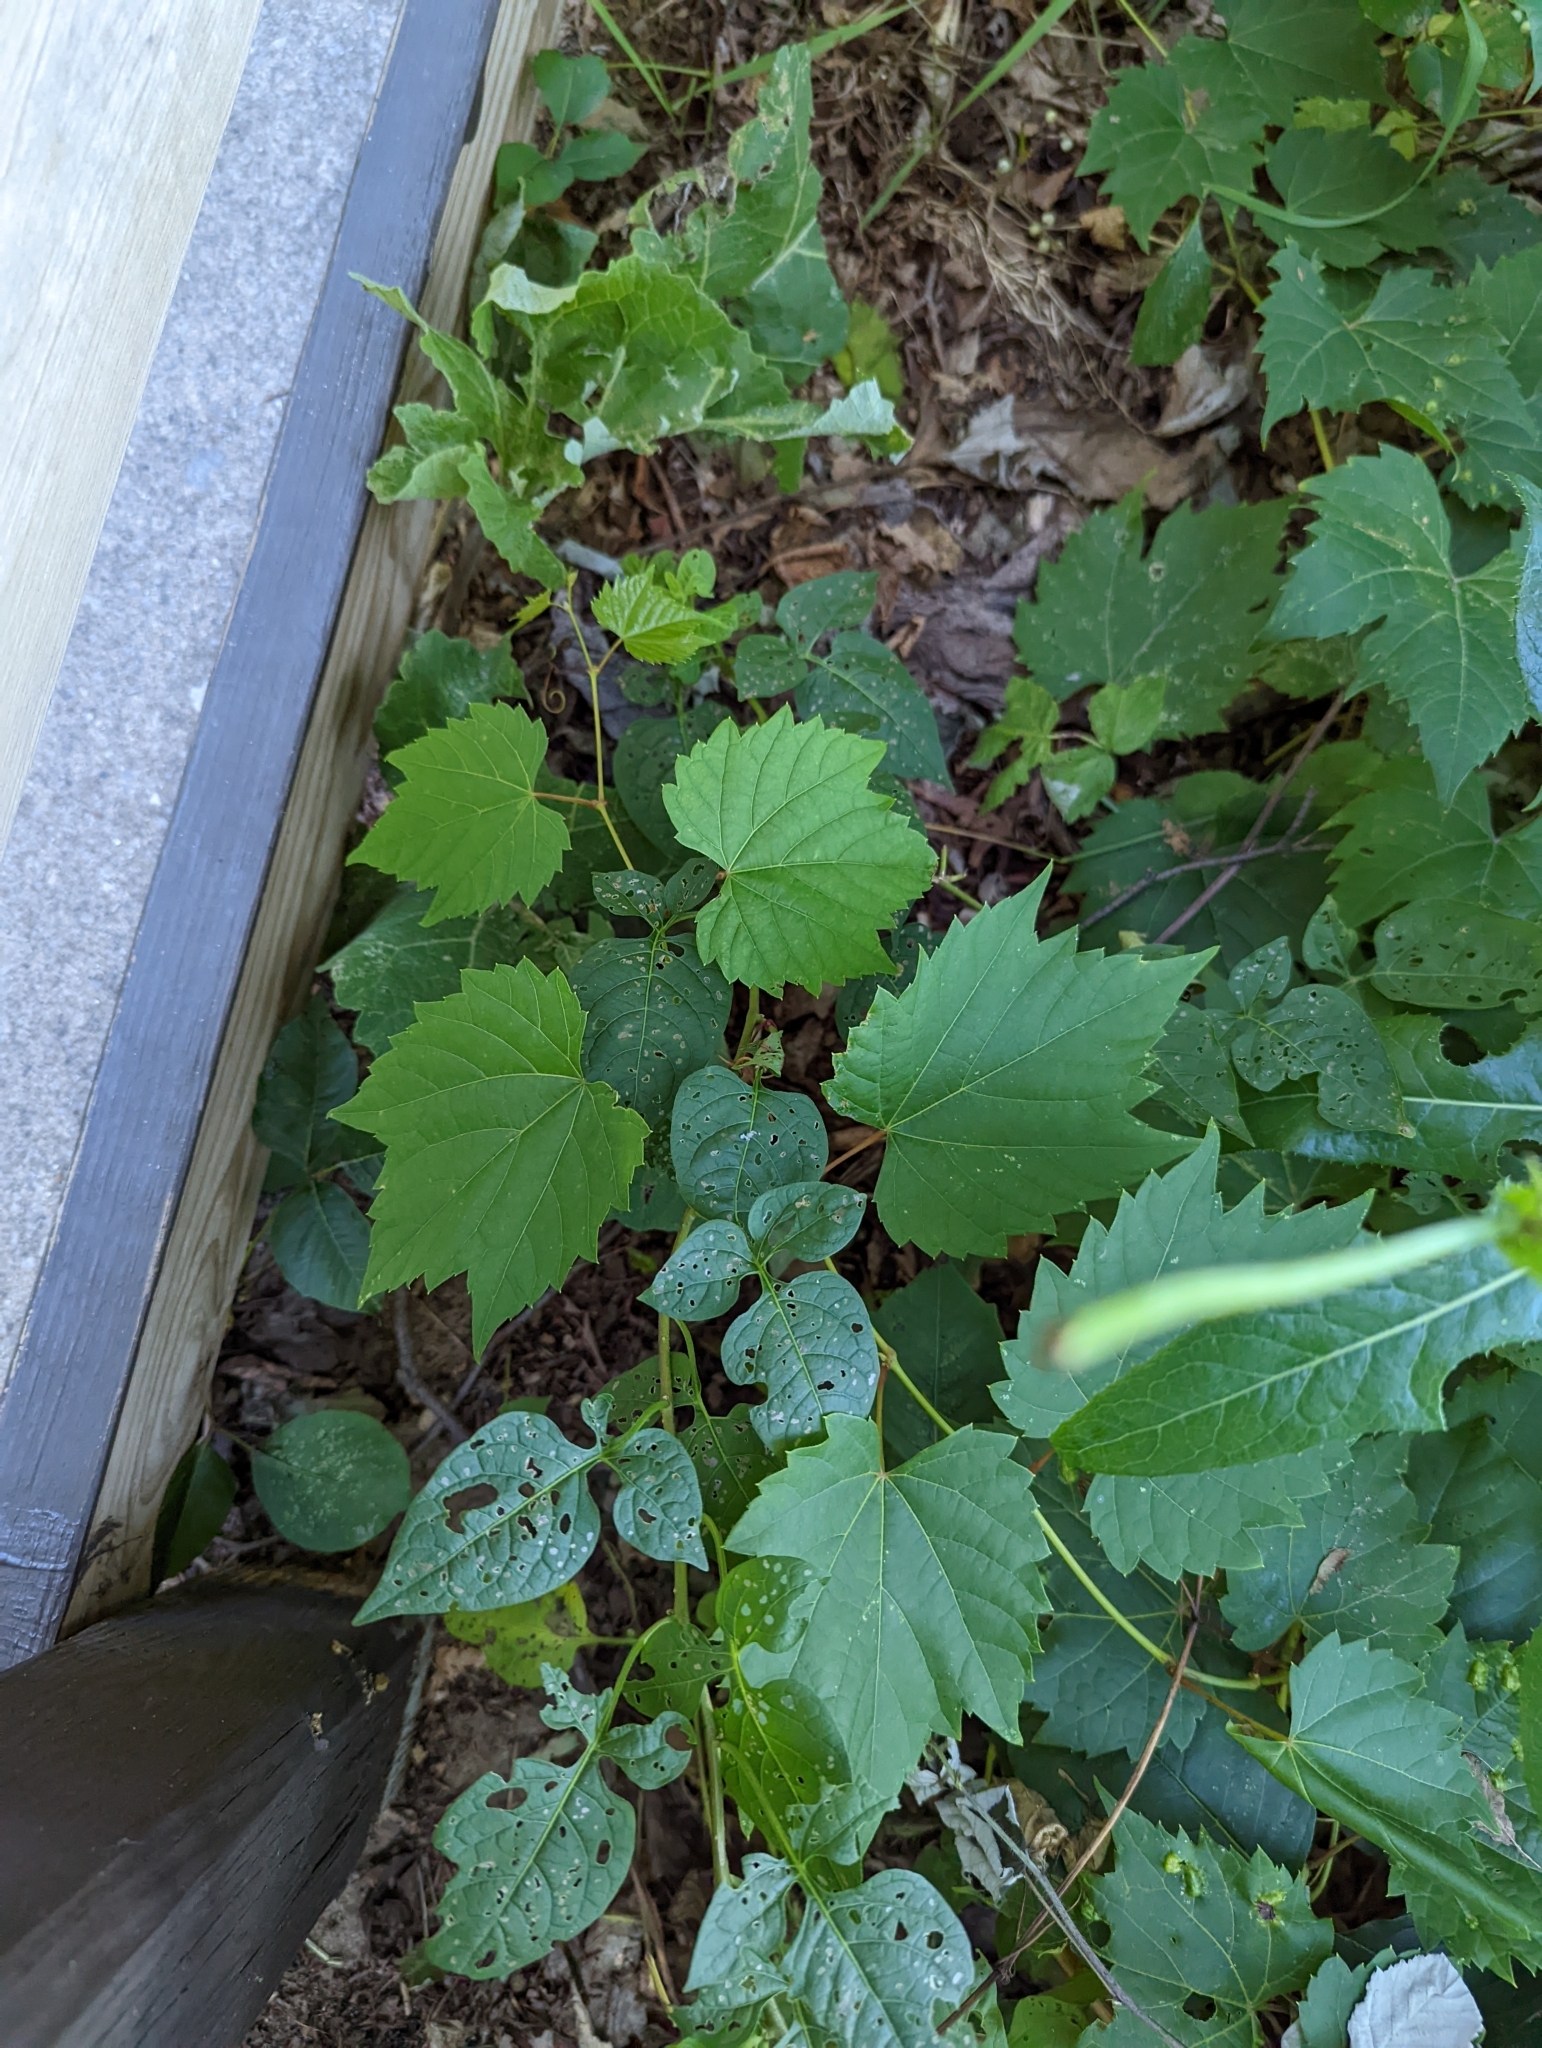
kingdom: Plantae
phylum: Tracheophyta
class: Magnoliopsida
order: Solanales
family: Solanaceae
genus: Solanum
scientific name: Solanum dulcamara
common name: Climbing nightshade
